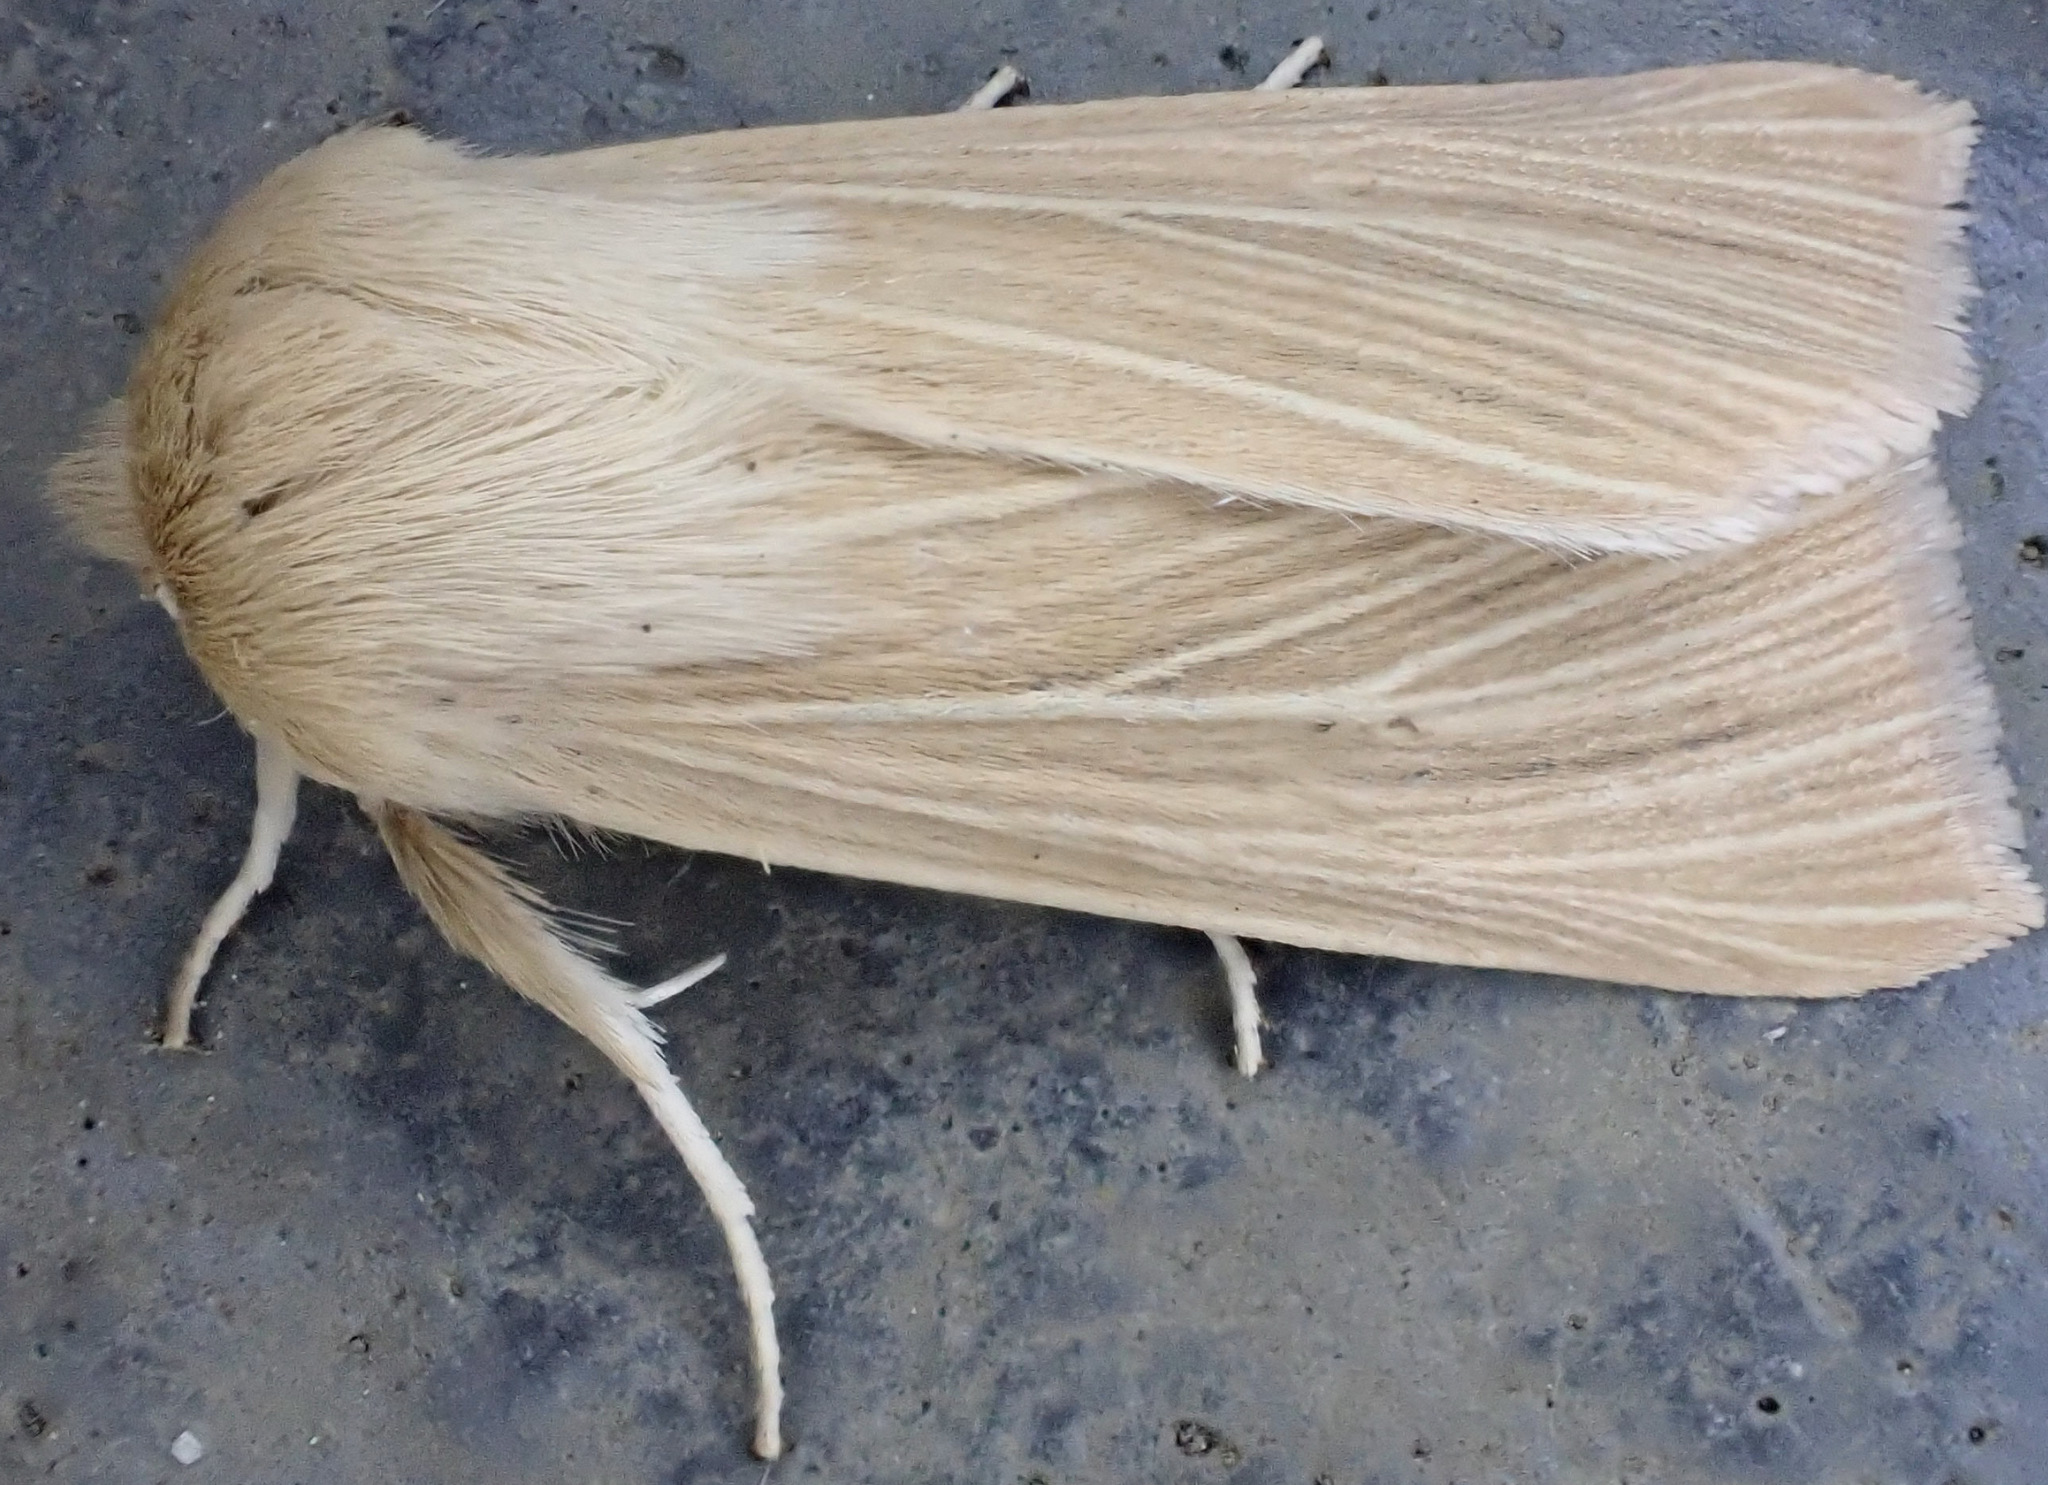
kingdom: Animalia
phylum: Arthropoda
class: Insecta
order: Lepidoptera
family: Noctuidae
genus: Mythimna
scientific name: Mythimna pallens
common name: Common wainscot
